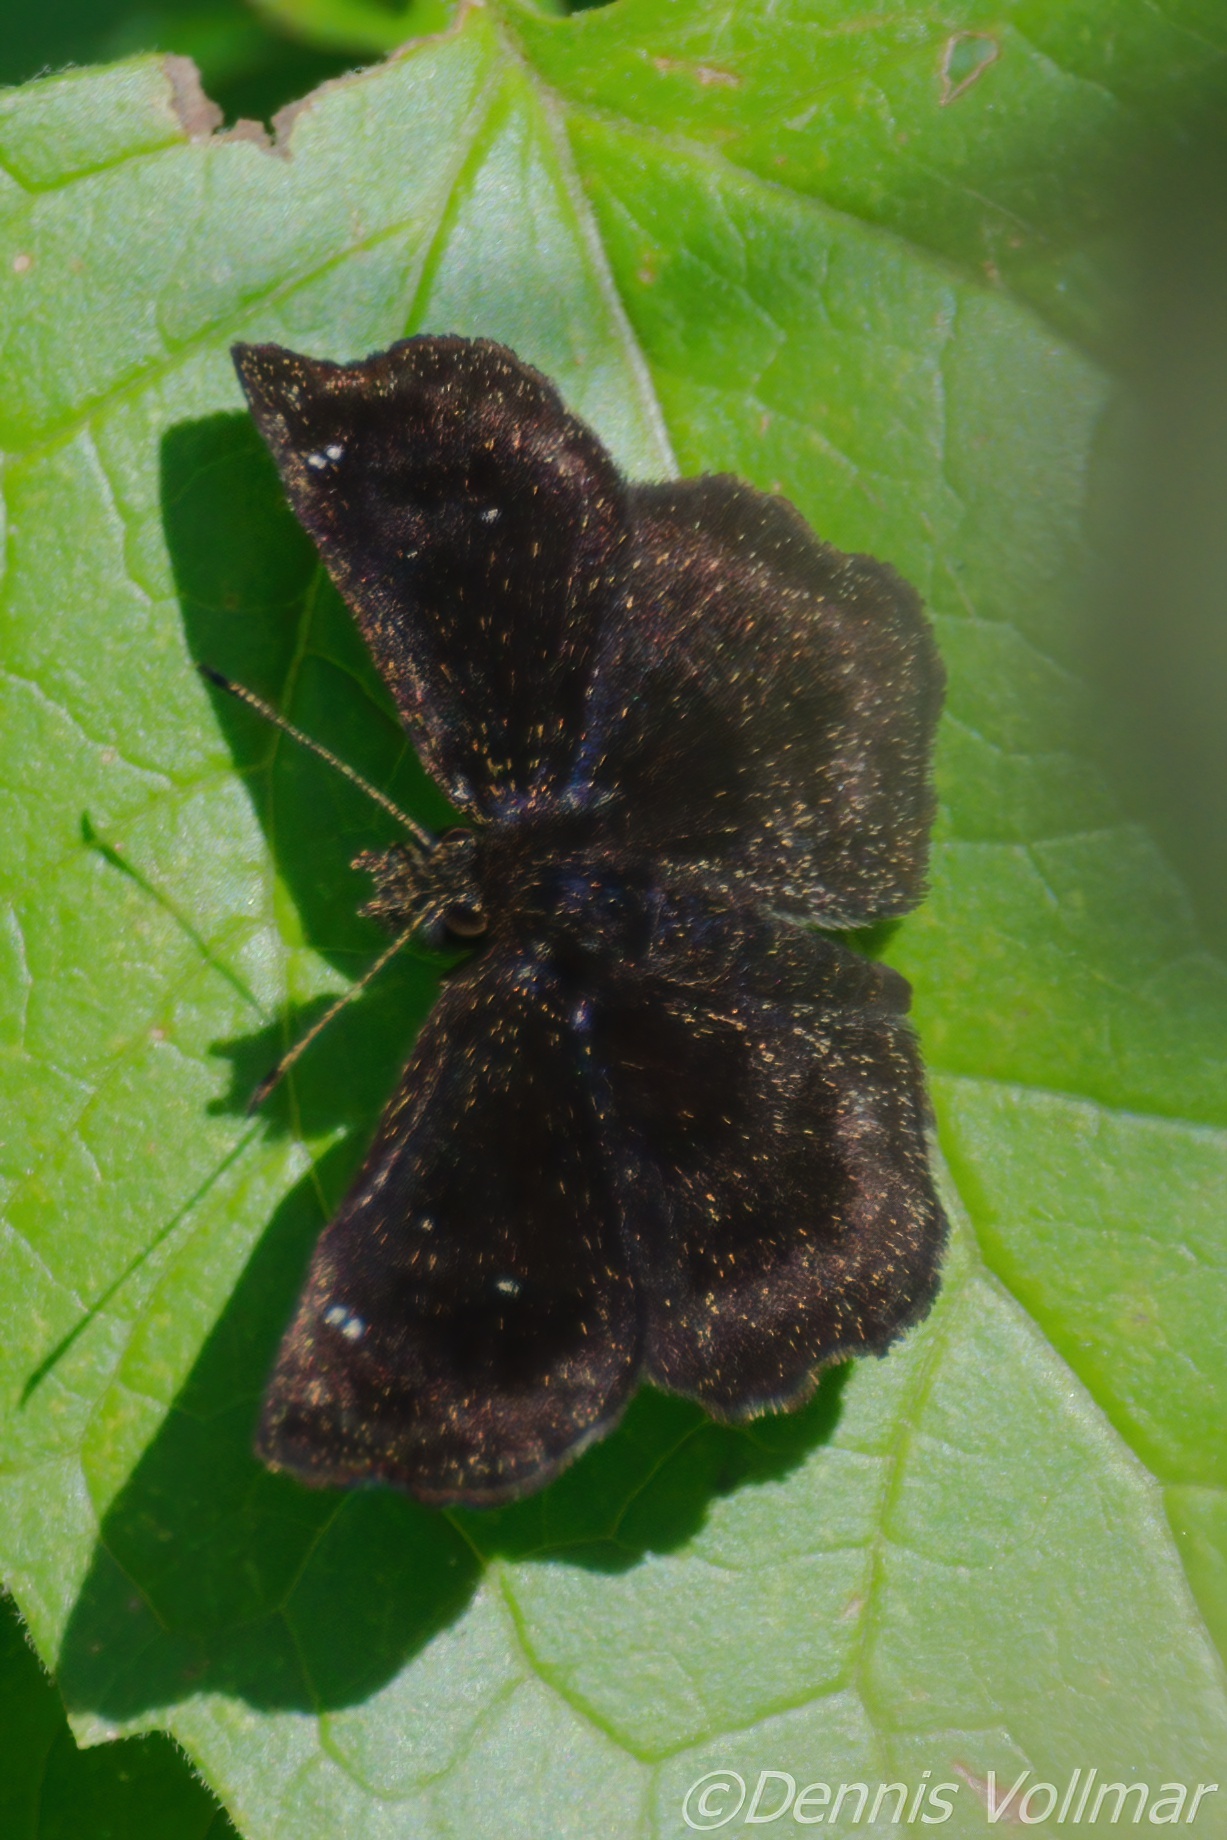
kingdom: Animalia
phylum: Arthropoda
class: Insecta
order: Lepidoptera
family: Hesperiidae
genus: Staphylus
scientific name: Staphylus mazans
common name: Mazans scallopwing
